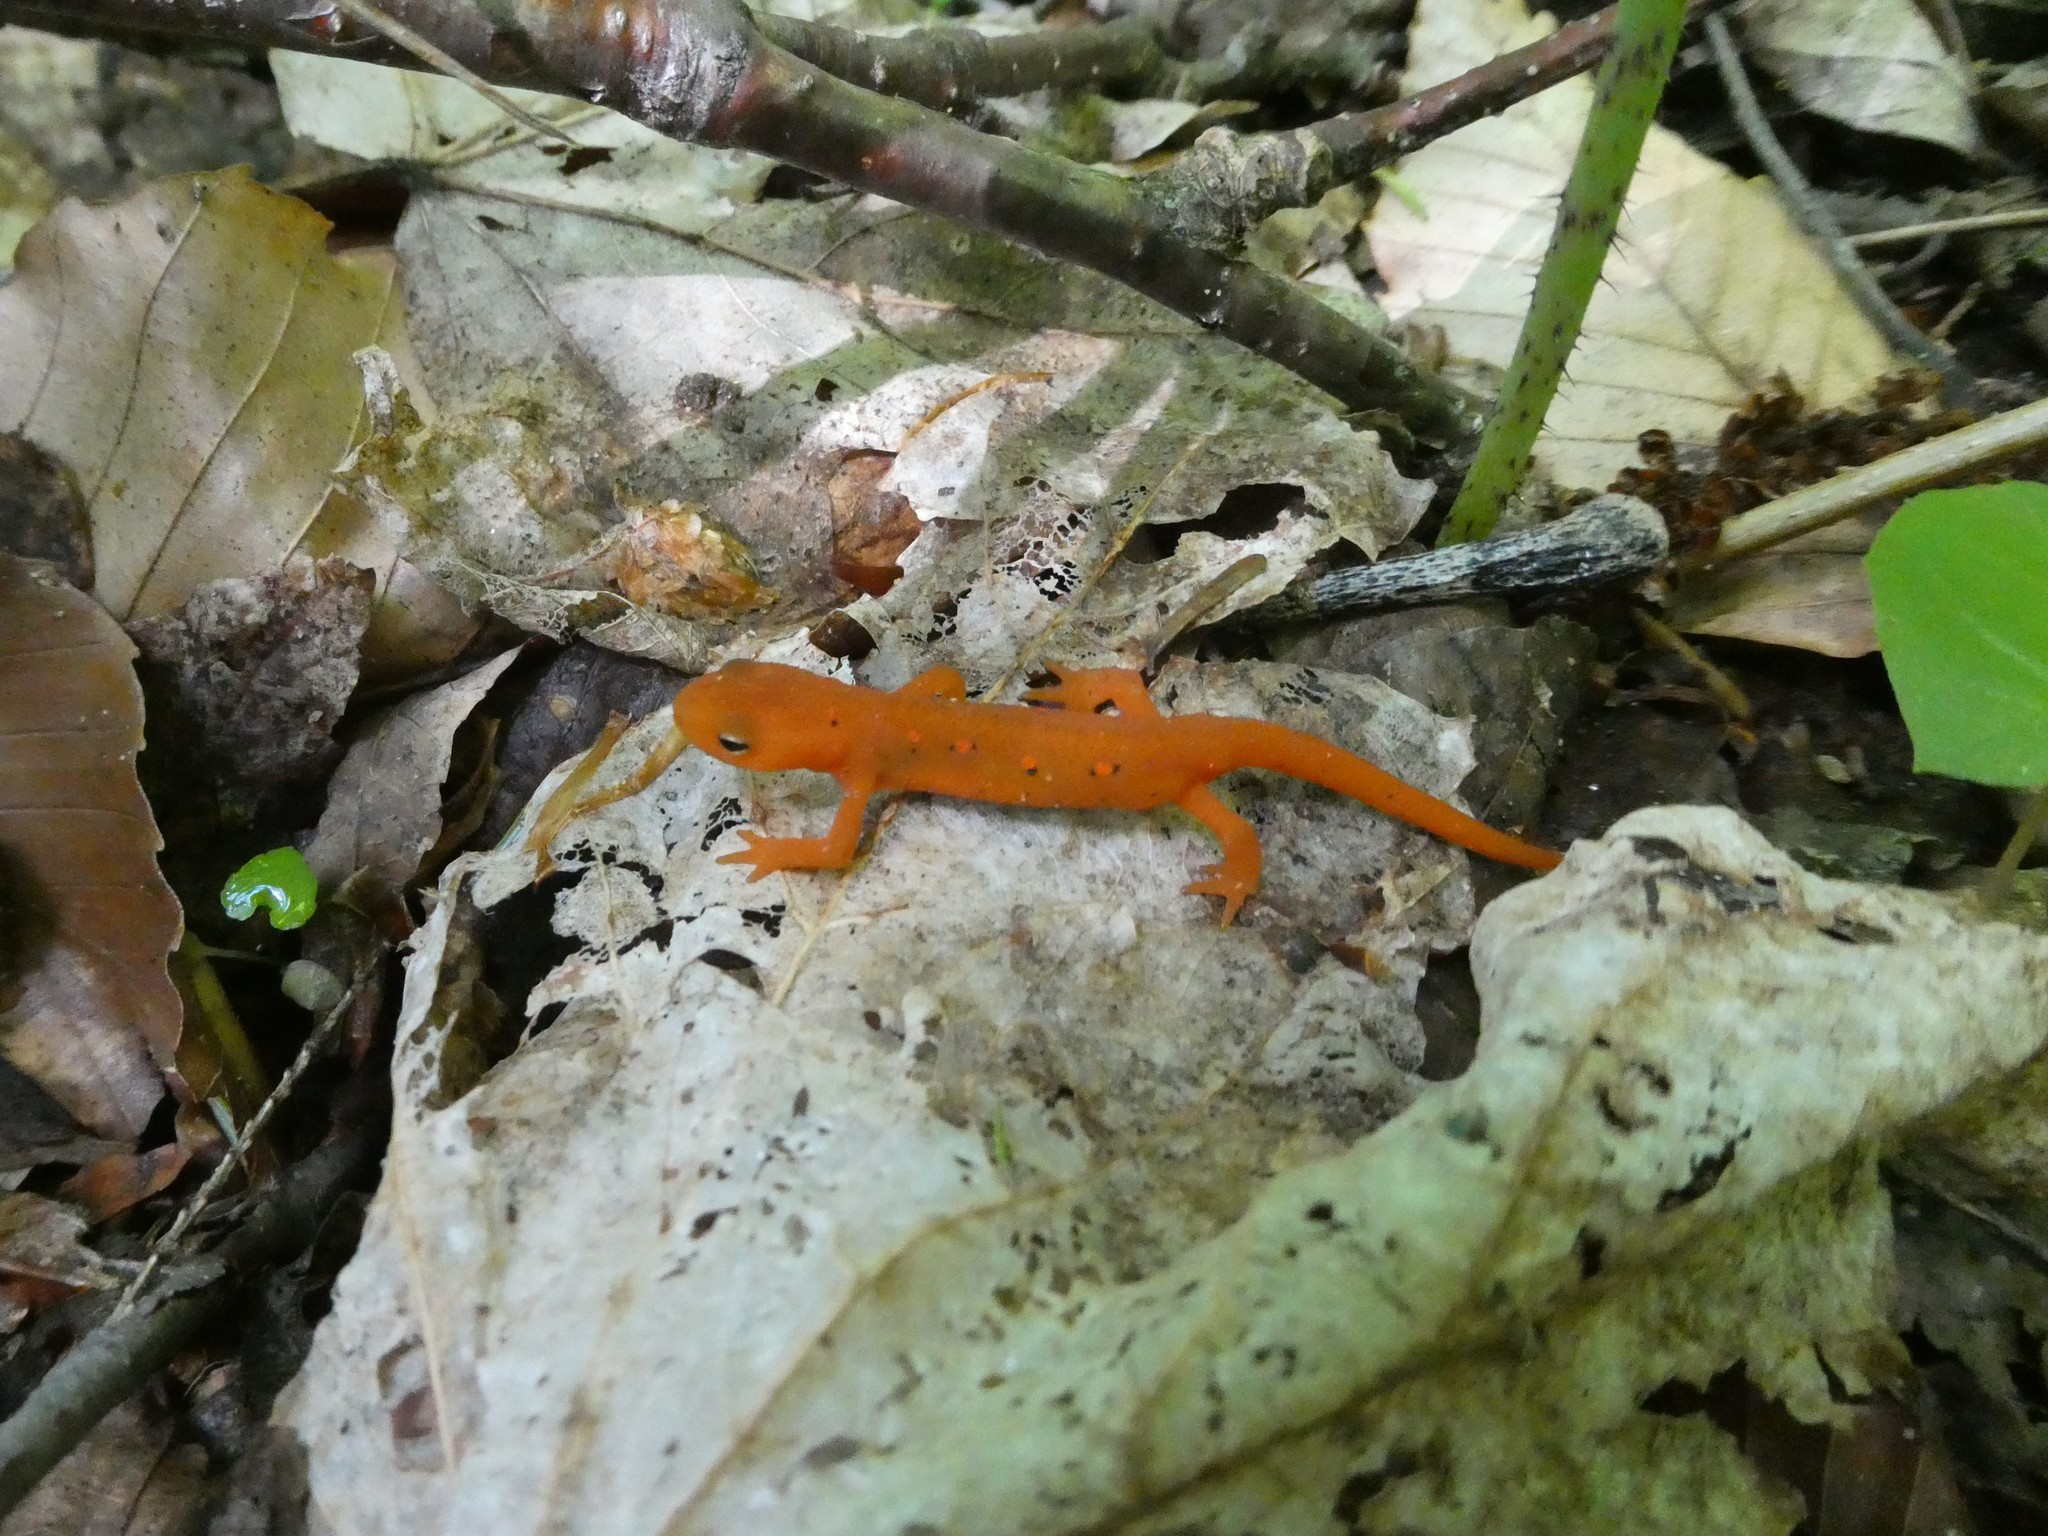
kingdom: Animalia
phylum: Chordata
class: Amphibia
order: Caudata
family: Salamandridae
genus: Notophthalmus
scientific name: Notophthalmus viridescens
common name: Eastern newt
